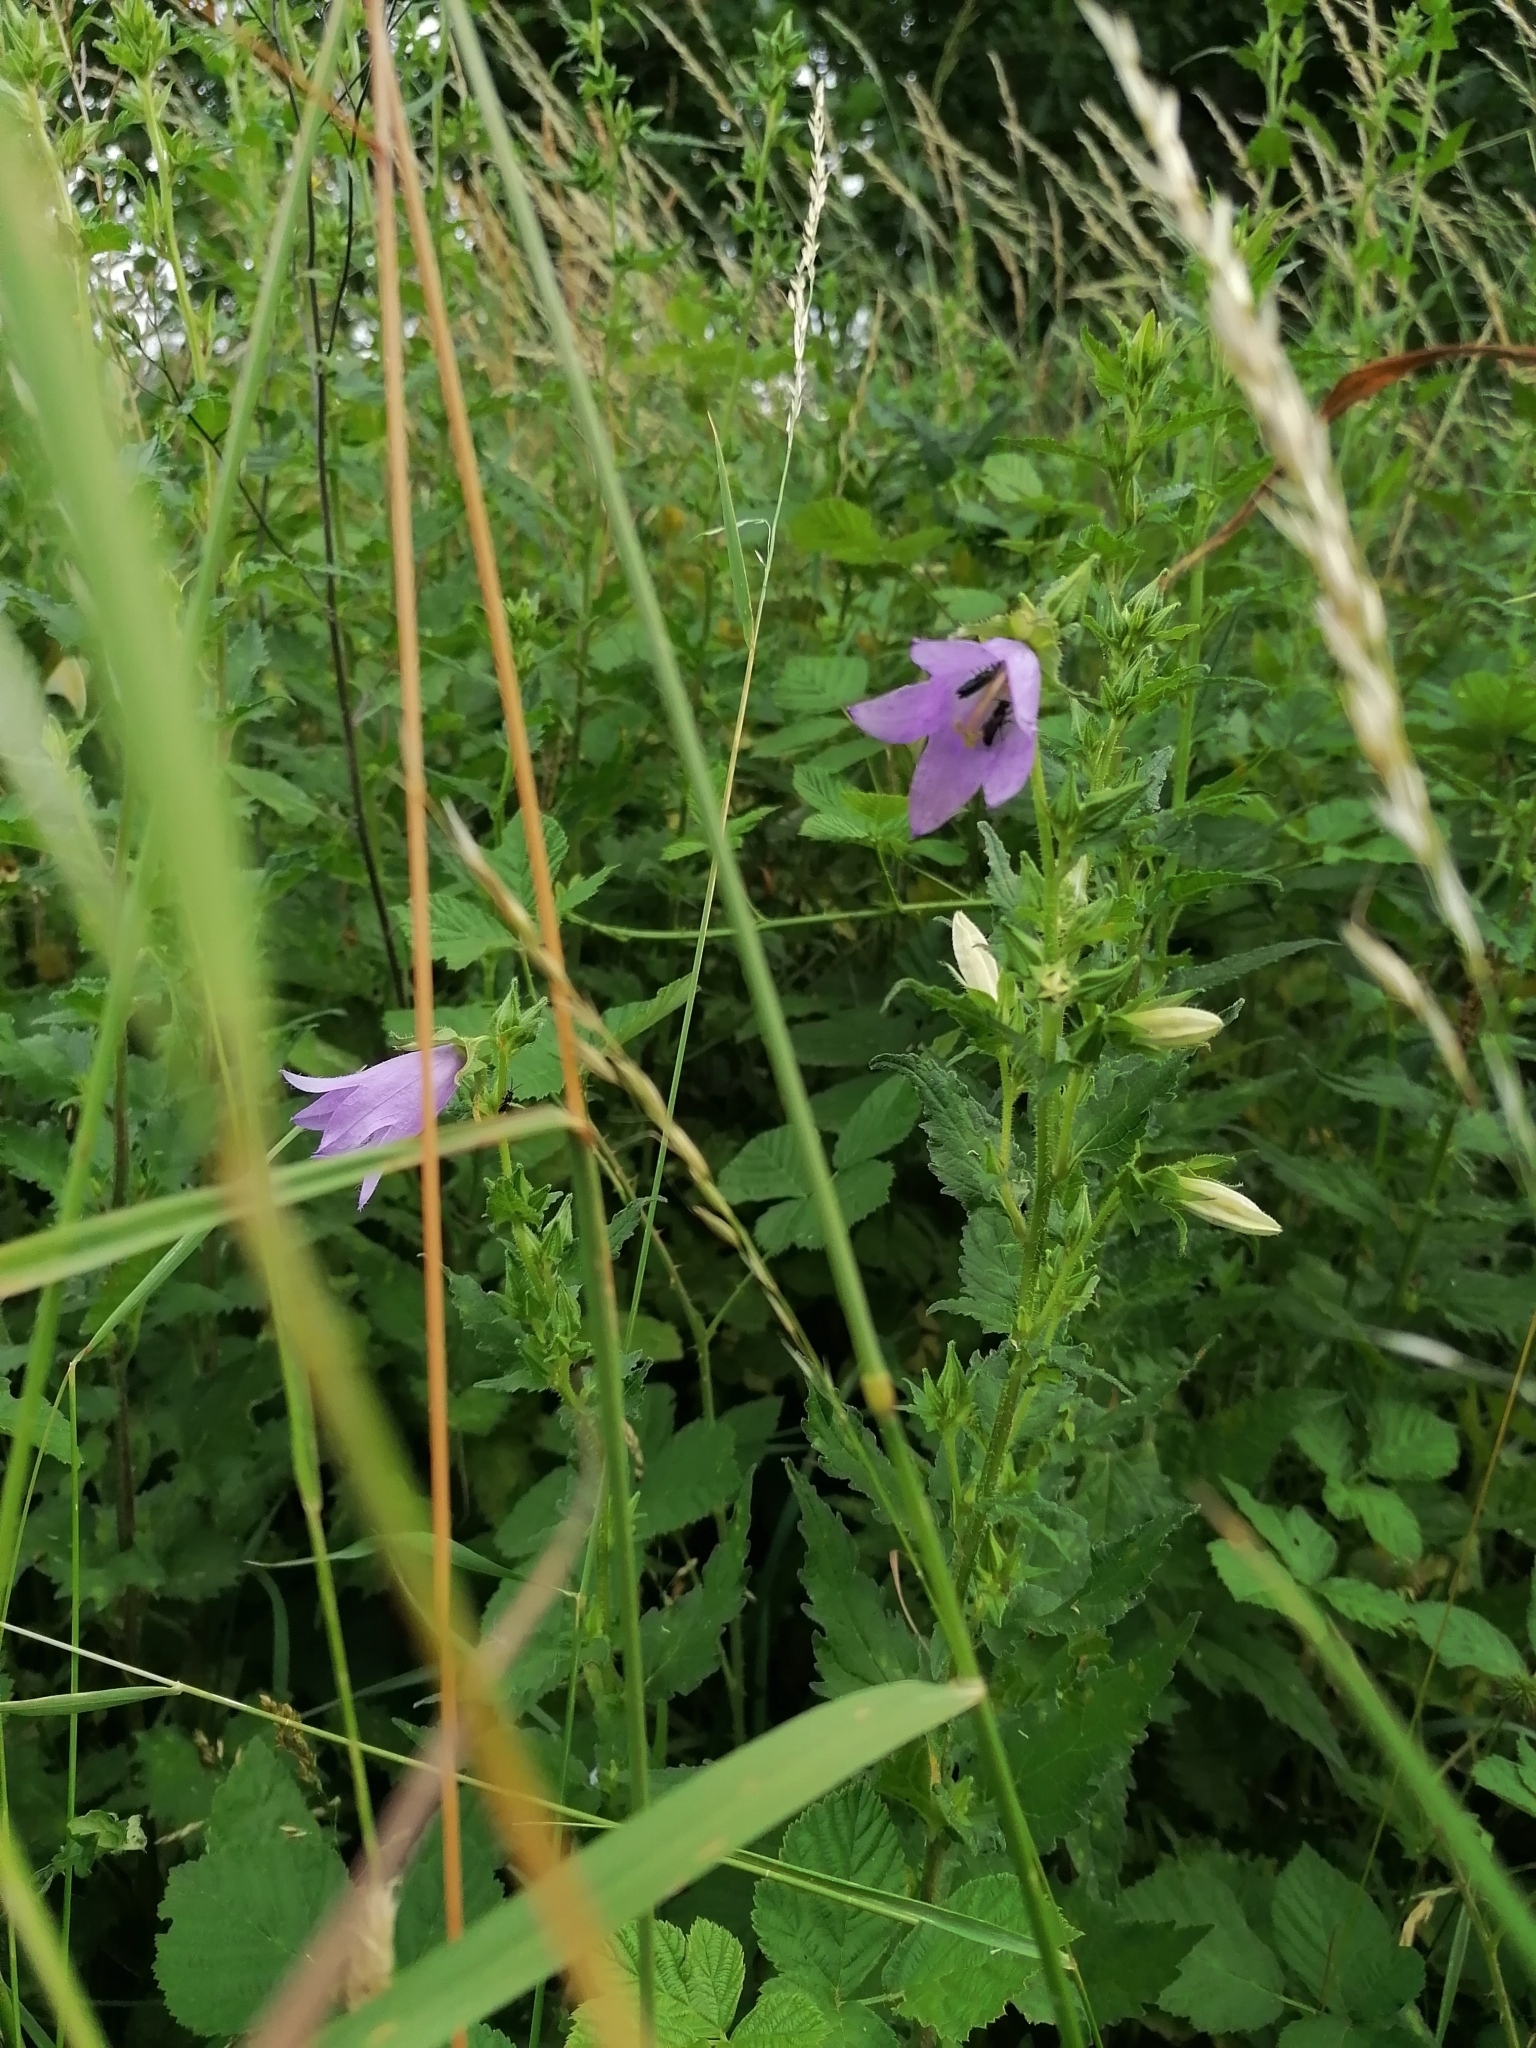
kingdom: Plantae
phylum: Tracheophyta
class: Magnoliopsida
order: Asterales
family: Campanulaceae
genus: Campanula
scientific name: Campanula trachelium
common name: Nettle-leaved bellflower
